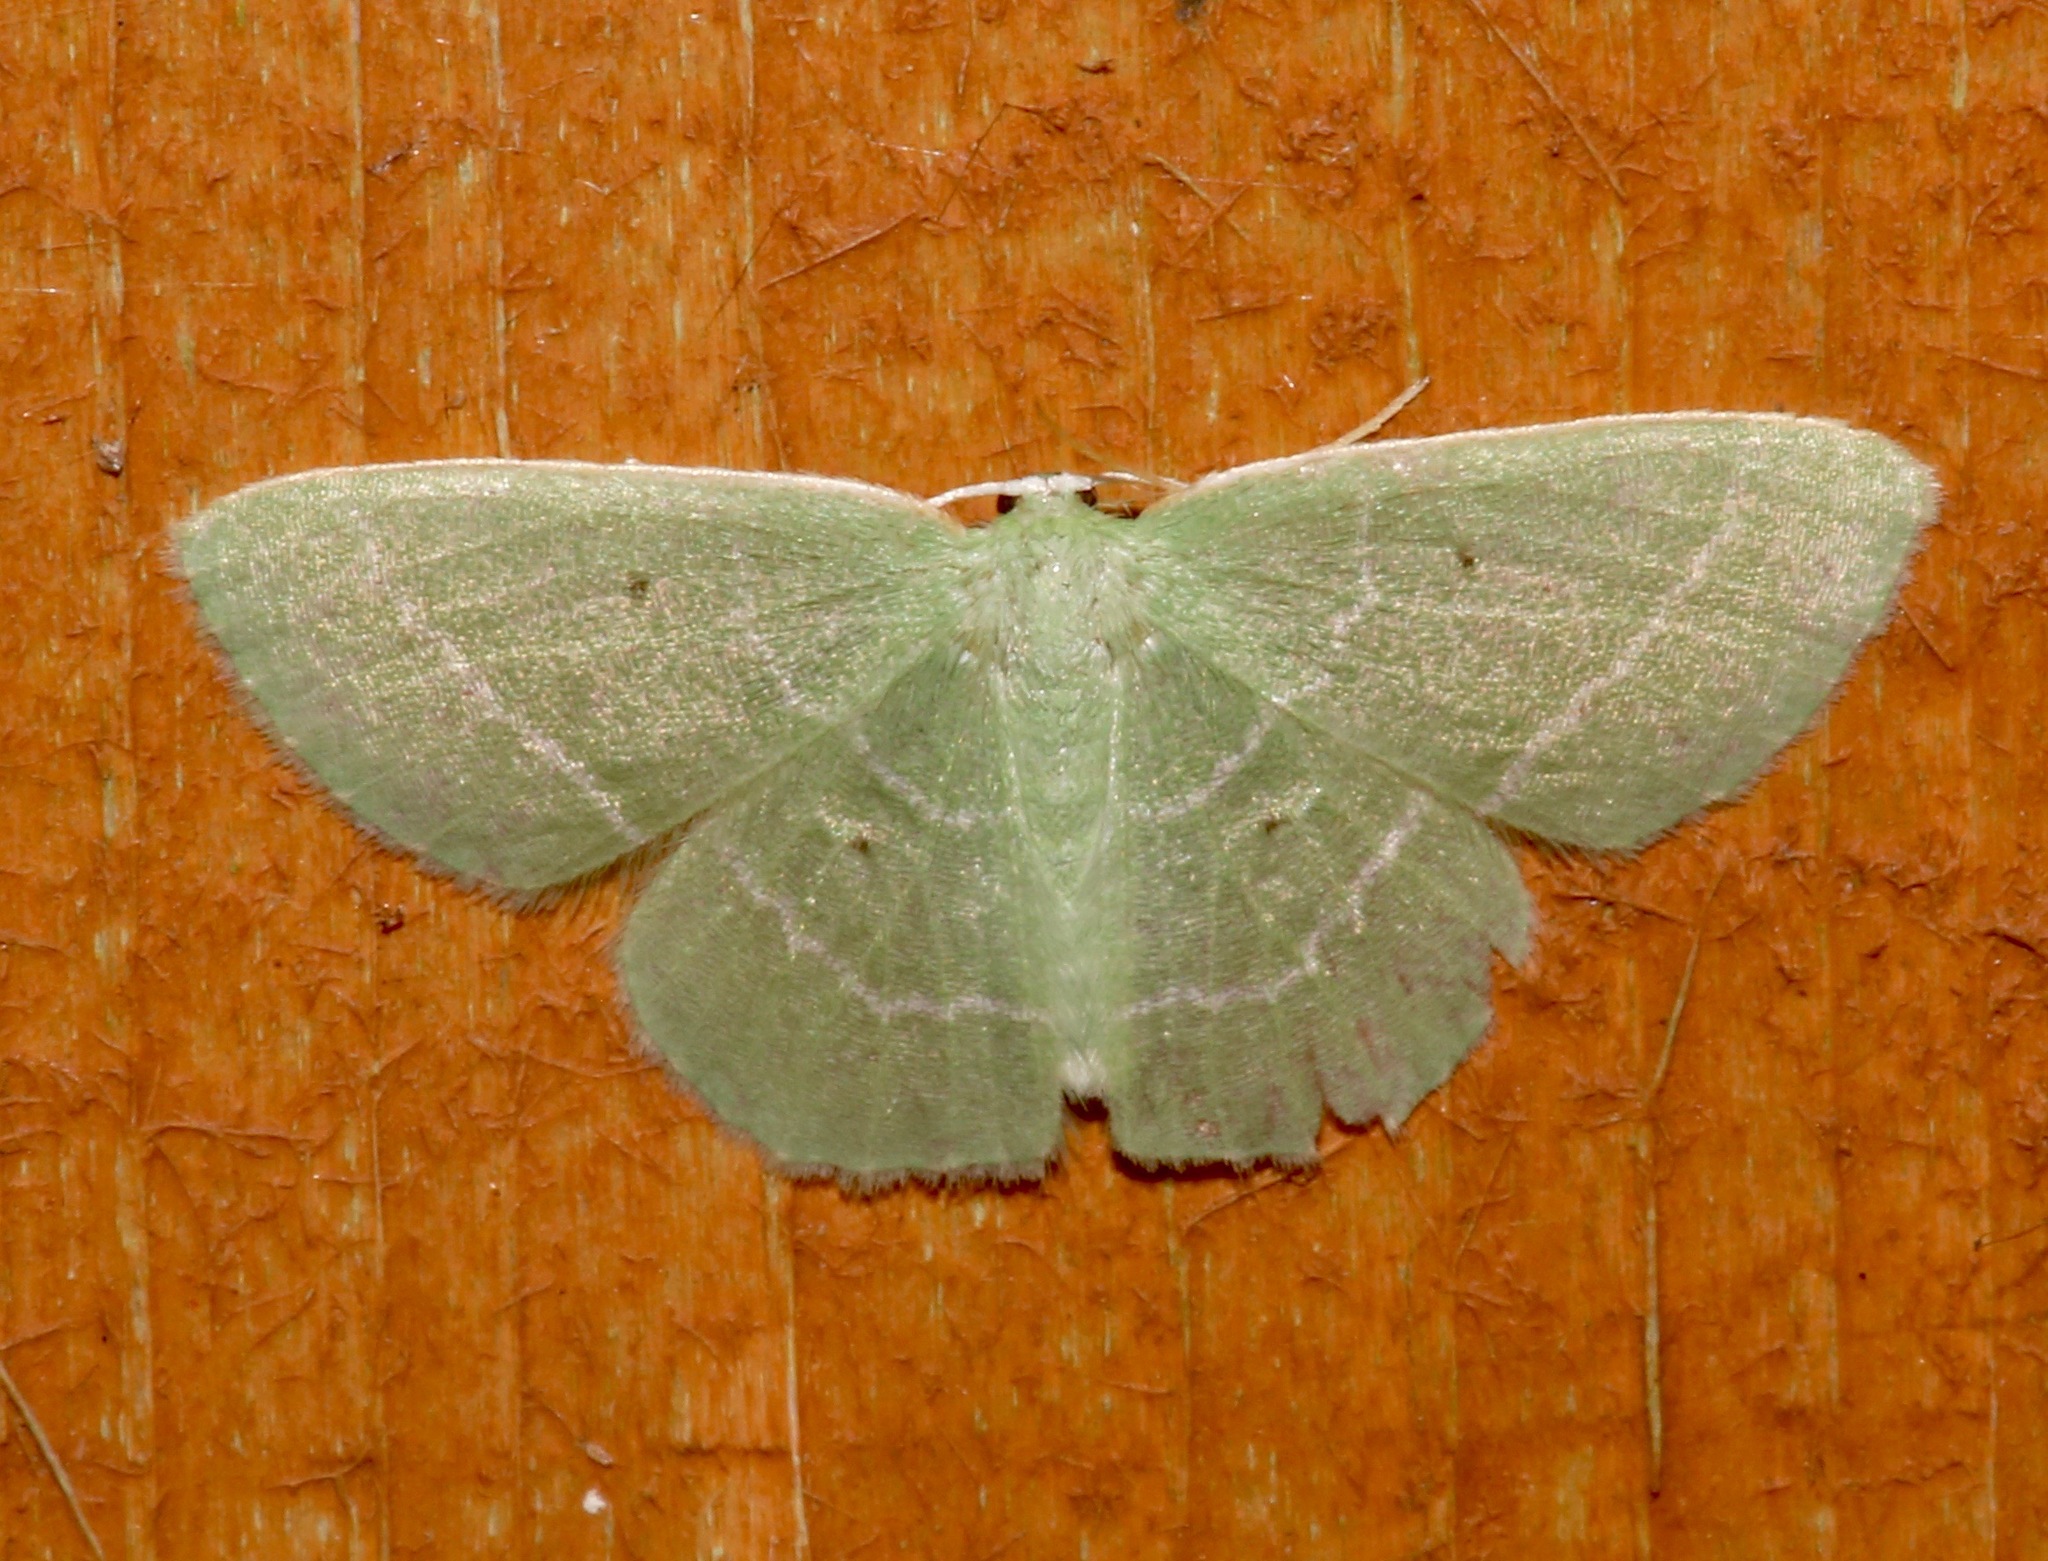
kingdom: Animalia
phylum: Arthropoda
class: Insecta
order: Lepidoptera
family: Geometridae
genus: Nemoria
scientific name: Nemoria elfa
